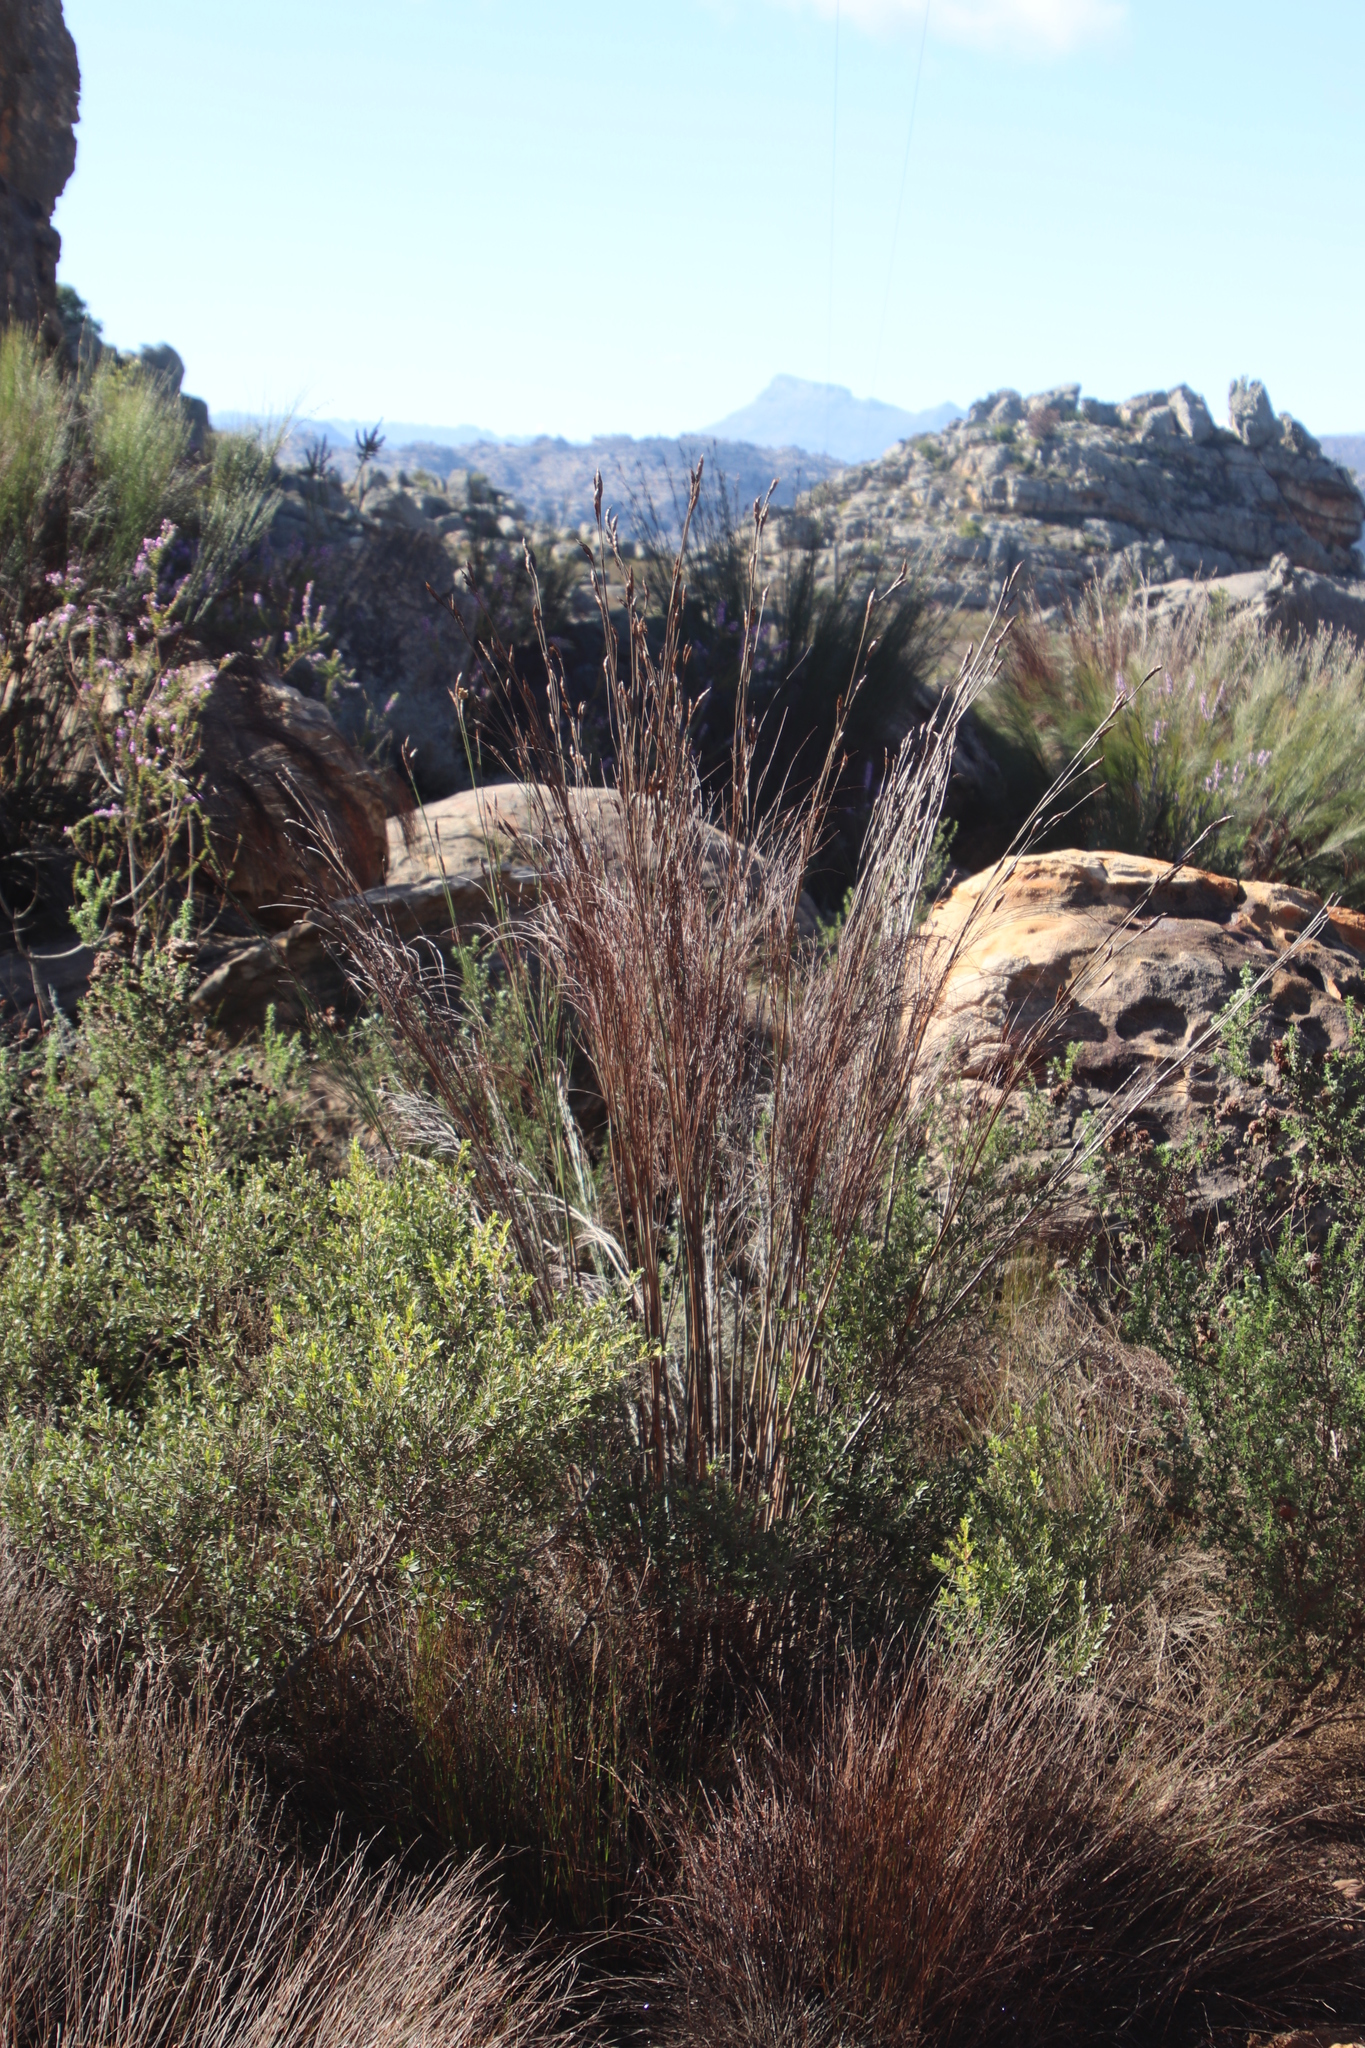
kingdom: Plantae
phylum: Tracheophyta
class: Liliopsida
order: Poales
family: Restionaceae
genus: Cannomois
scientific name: Cannomois robusta
